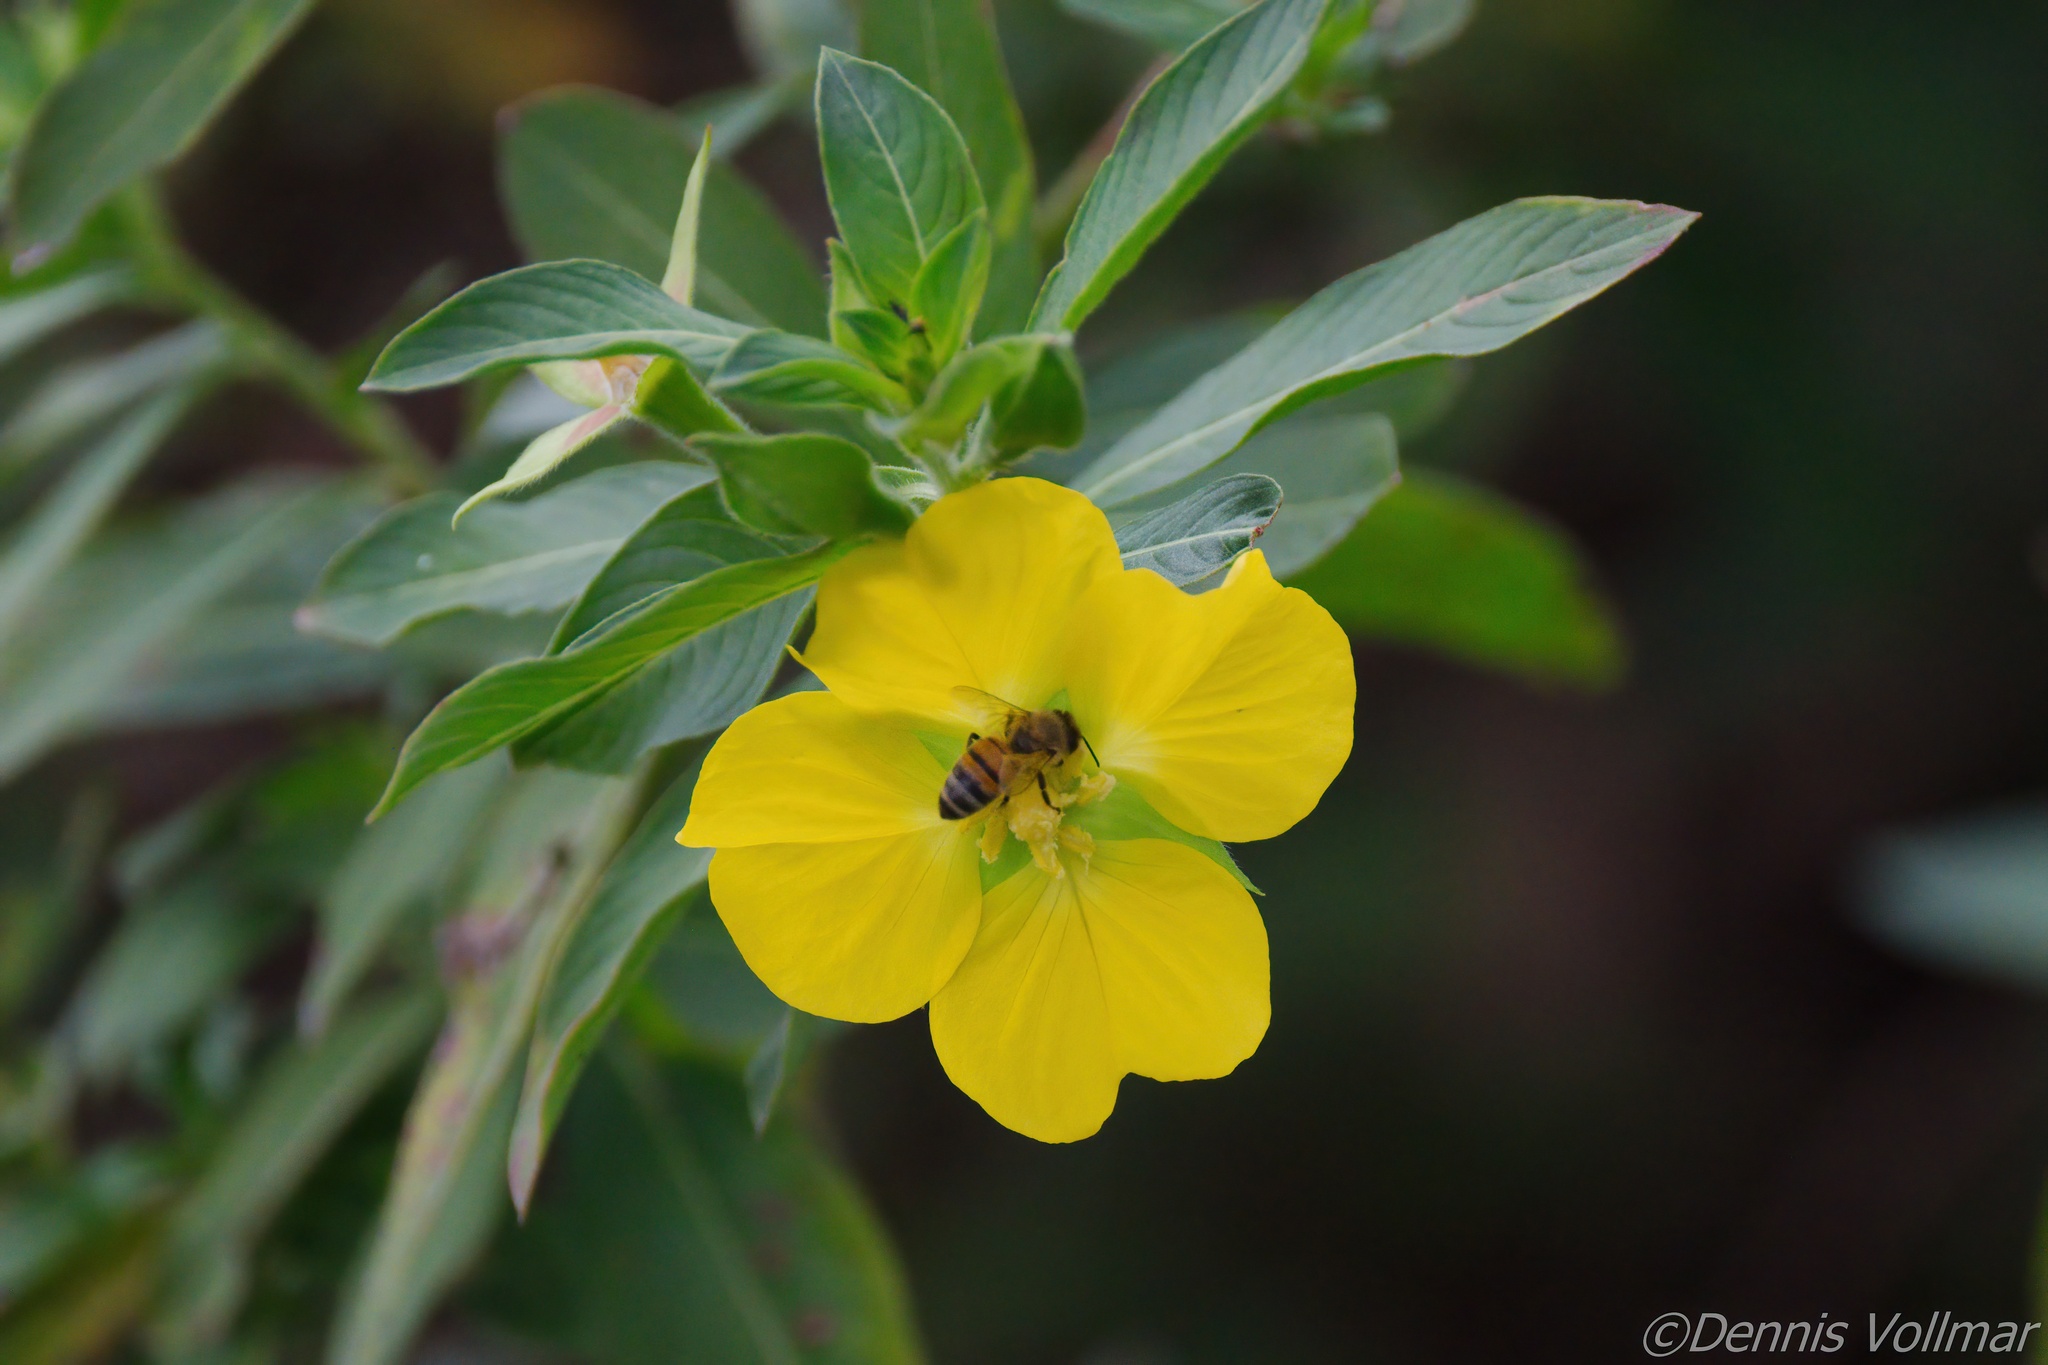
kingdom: Plantae
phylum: Tracheophyta
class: Magnoliopsida
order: Myrtales
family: Onagraceae
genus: Ludwigia
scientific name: Ludwigia peruviana
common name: Peruvian primrose-willow
